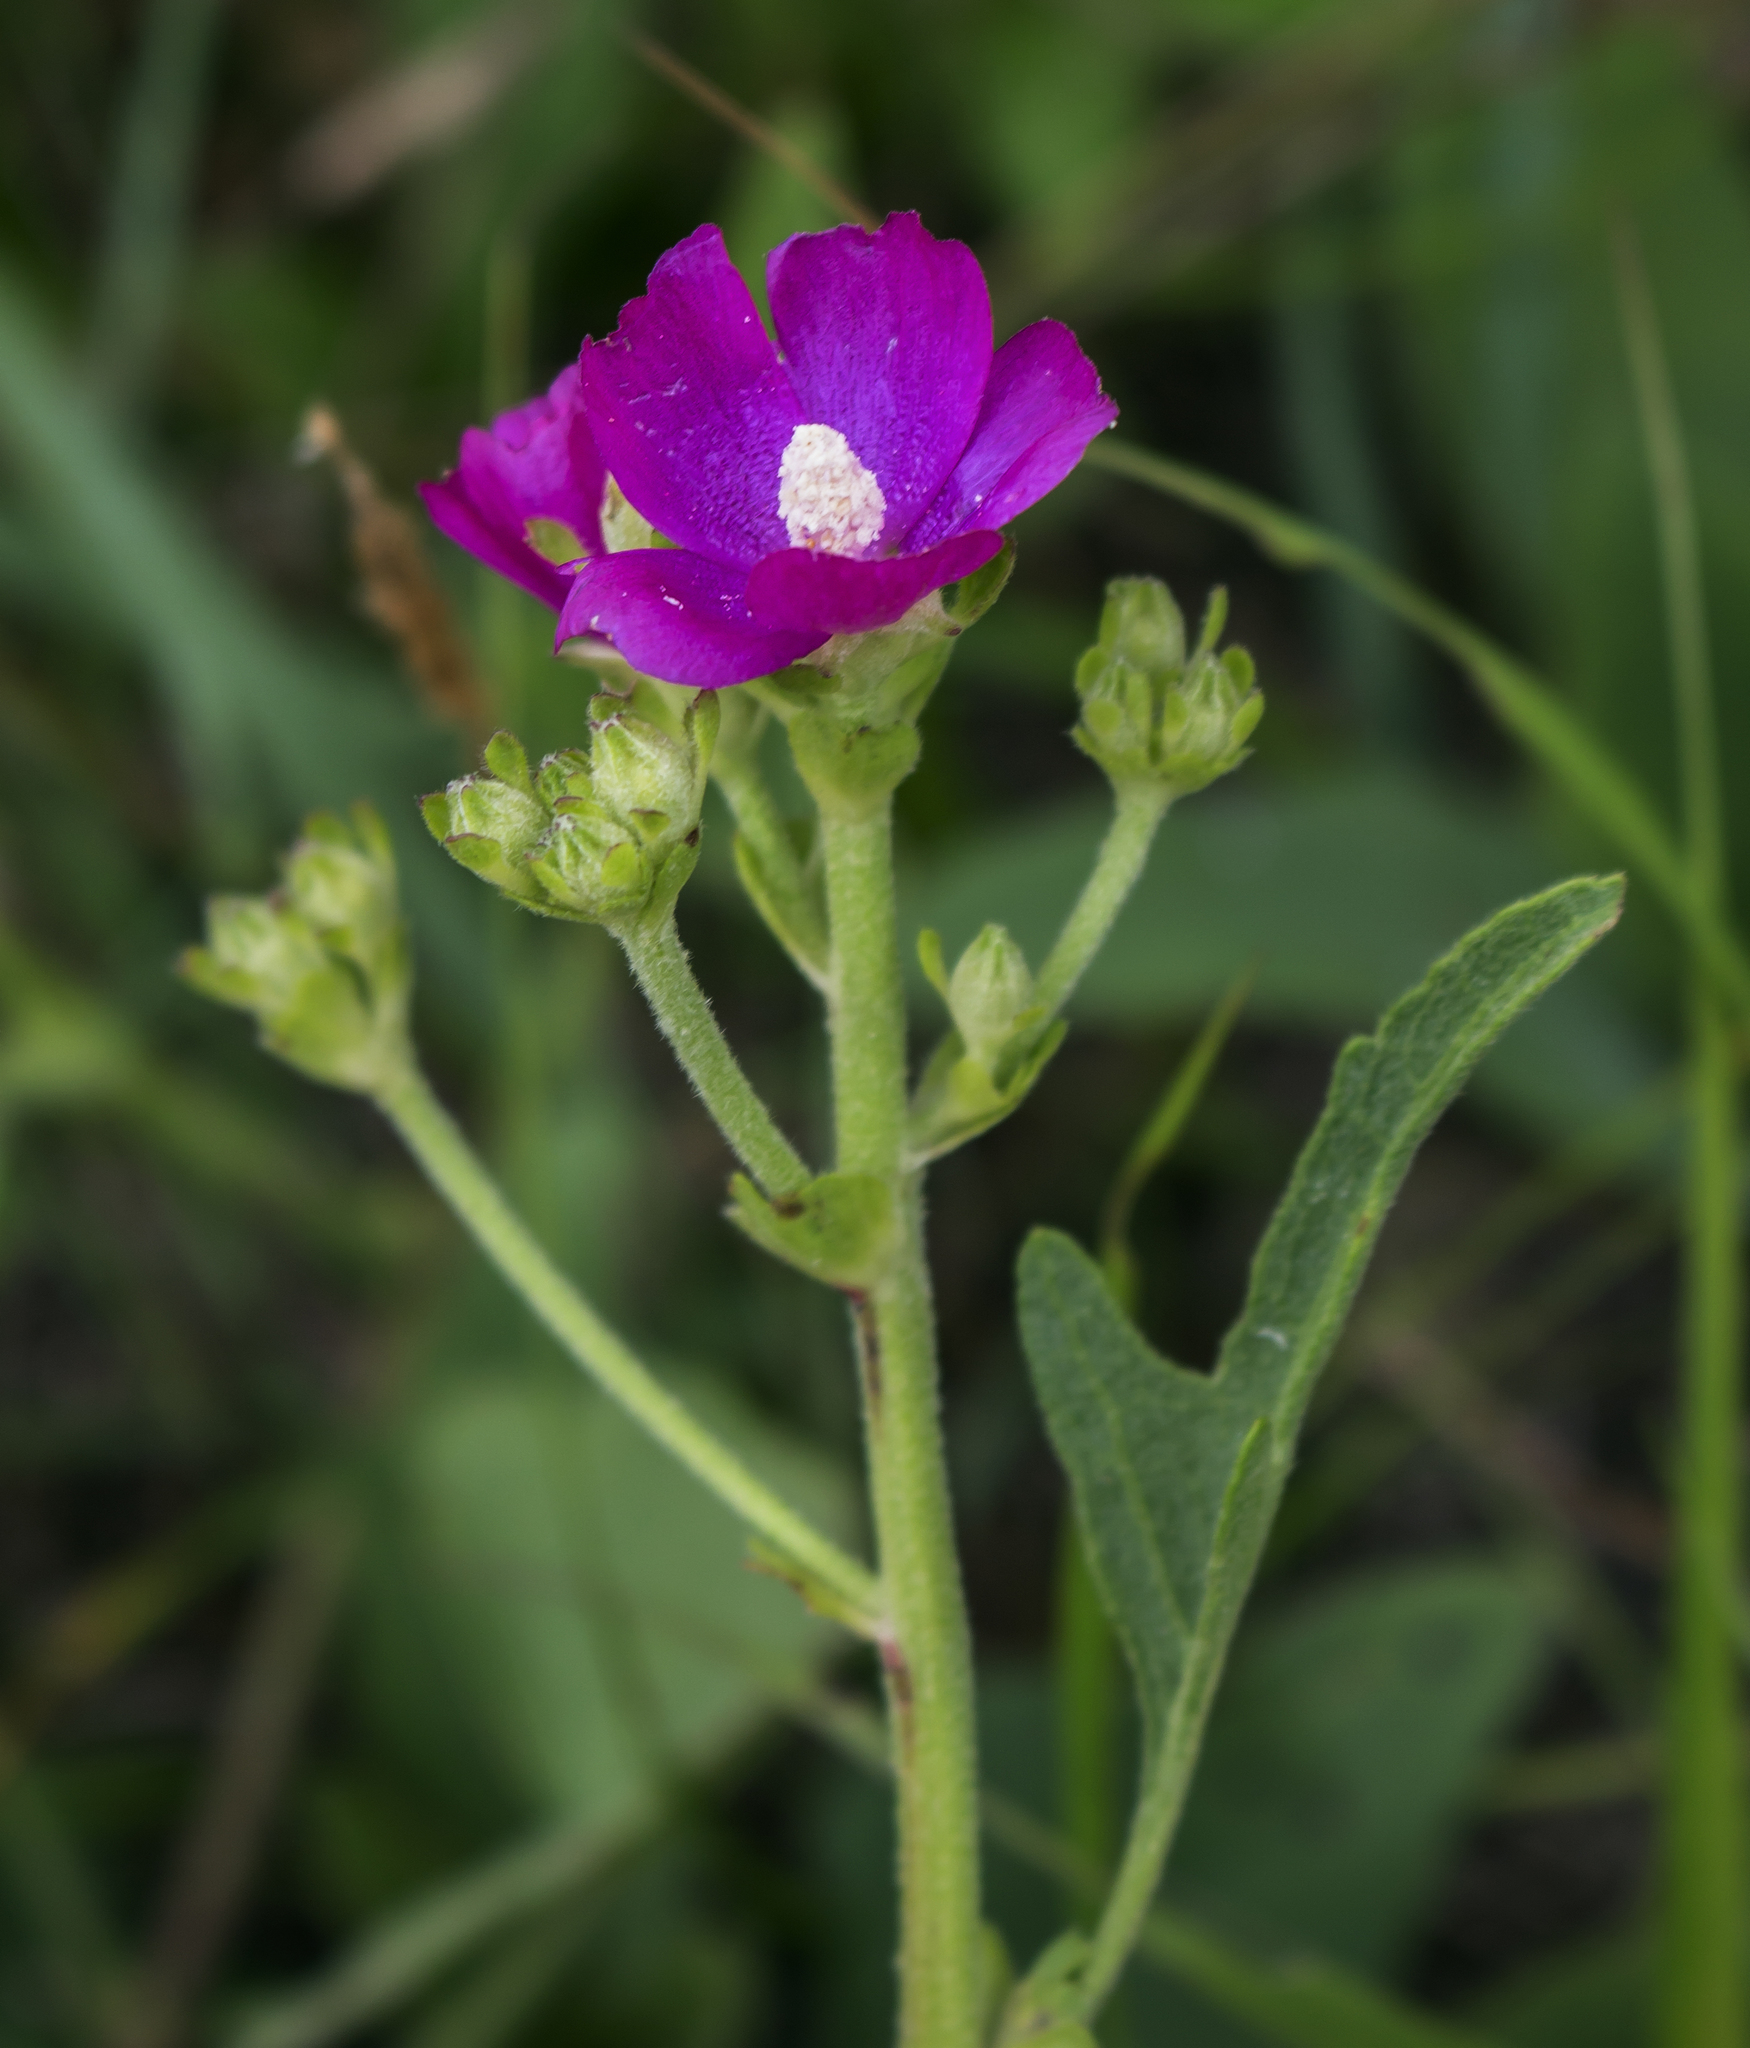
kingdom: Plantae
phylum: Tracheophyta
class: Magnoliopsida
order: Malvales
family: Malvaceae
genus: Callirhoe
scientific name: Callirhoe triangulata
